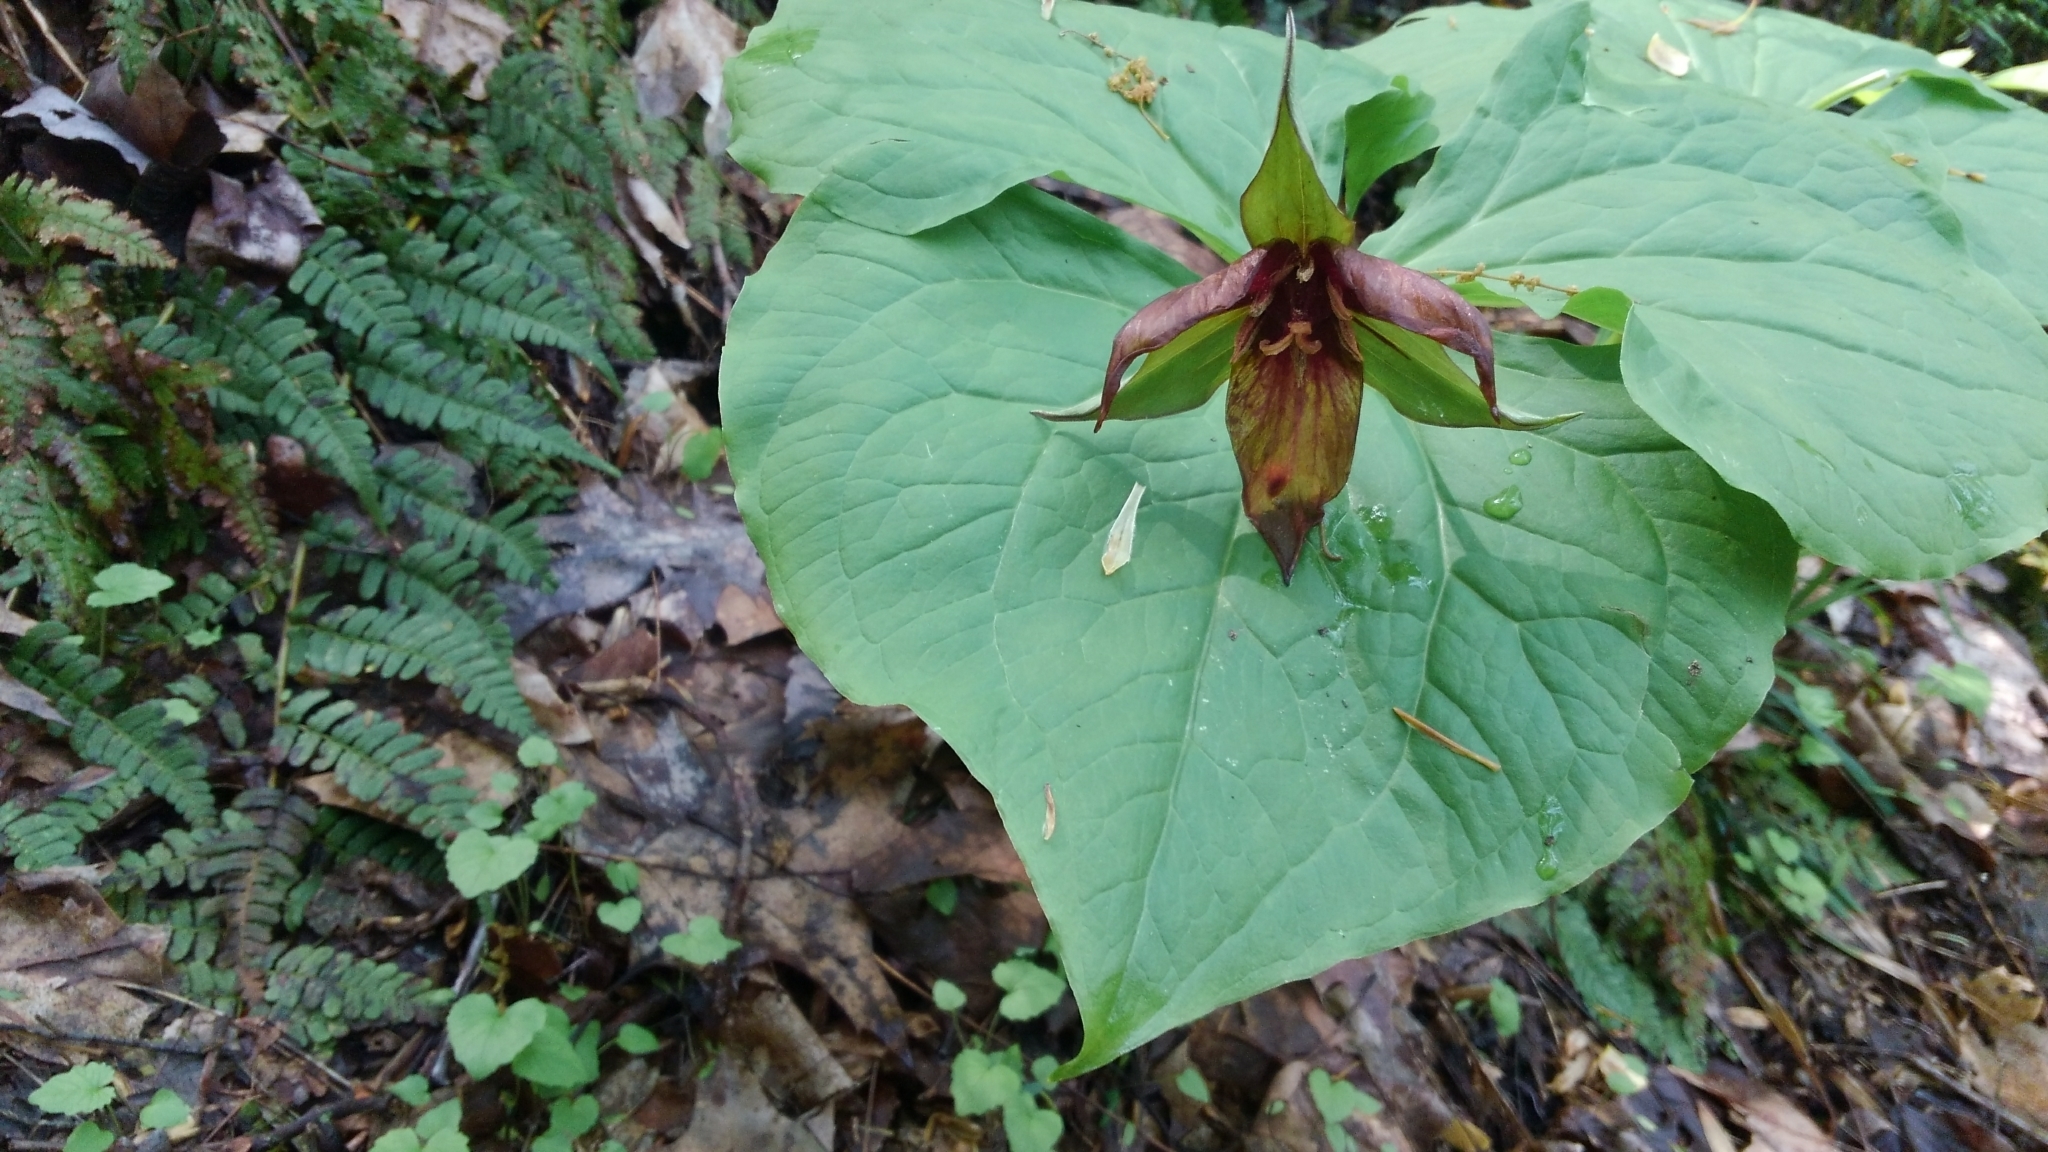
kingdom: Plantae
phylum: Tracheophyta
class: Liliopsida
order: Liliales
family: Melanthiaceae
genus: Trillium
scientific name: Trillium erectum
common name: Purple trillium
